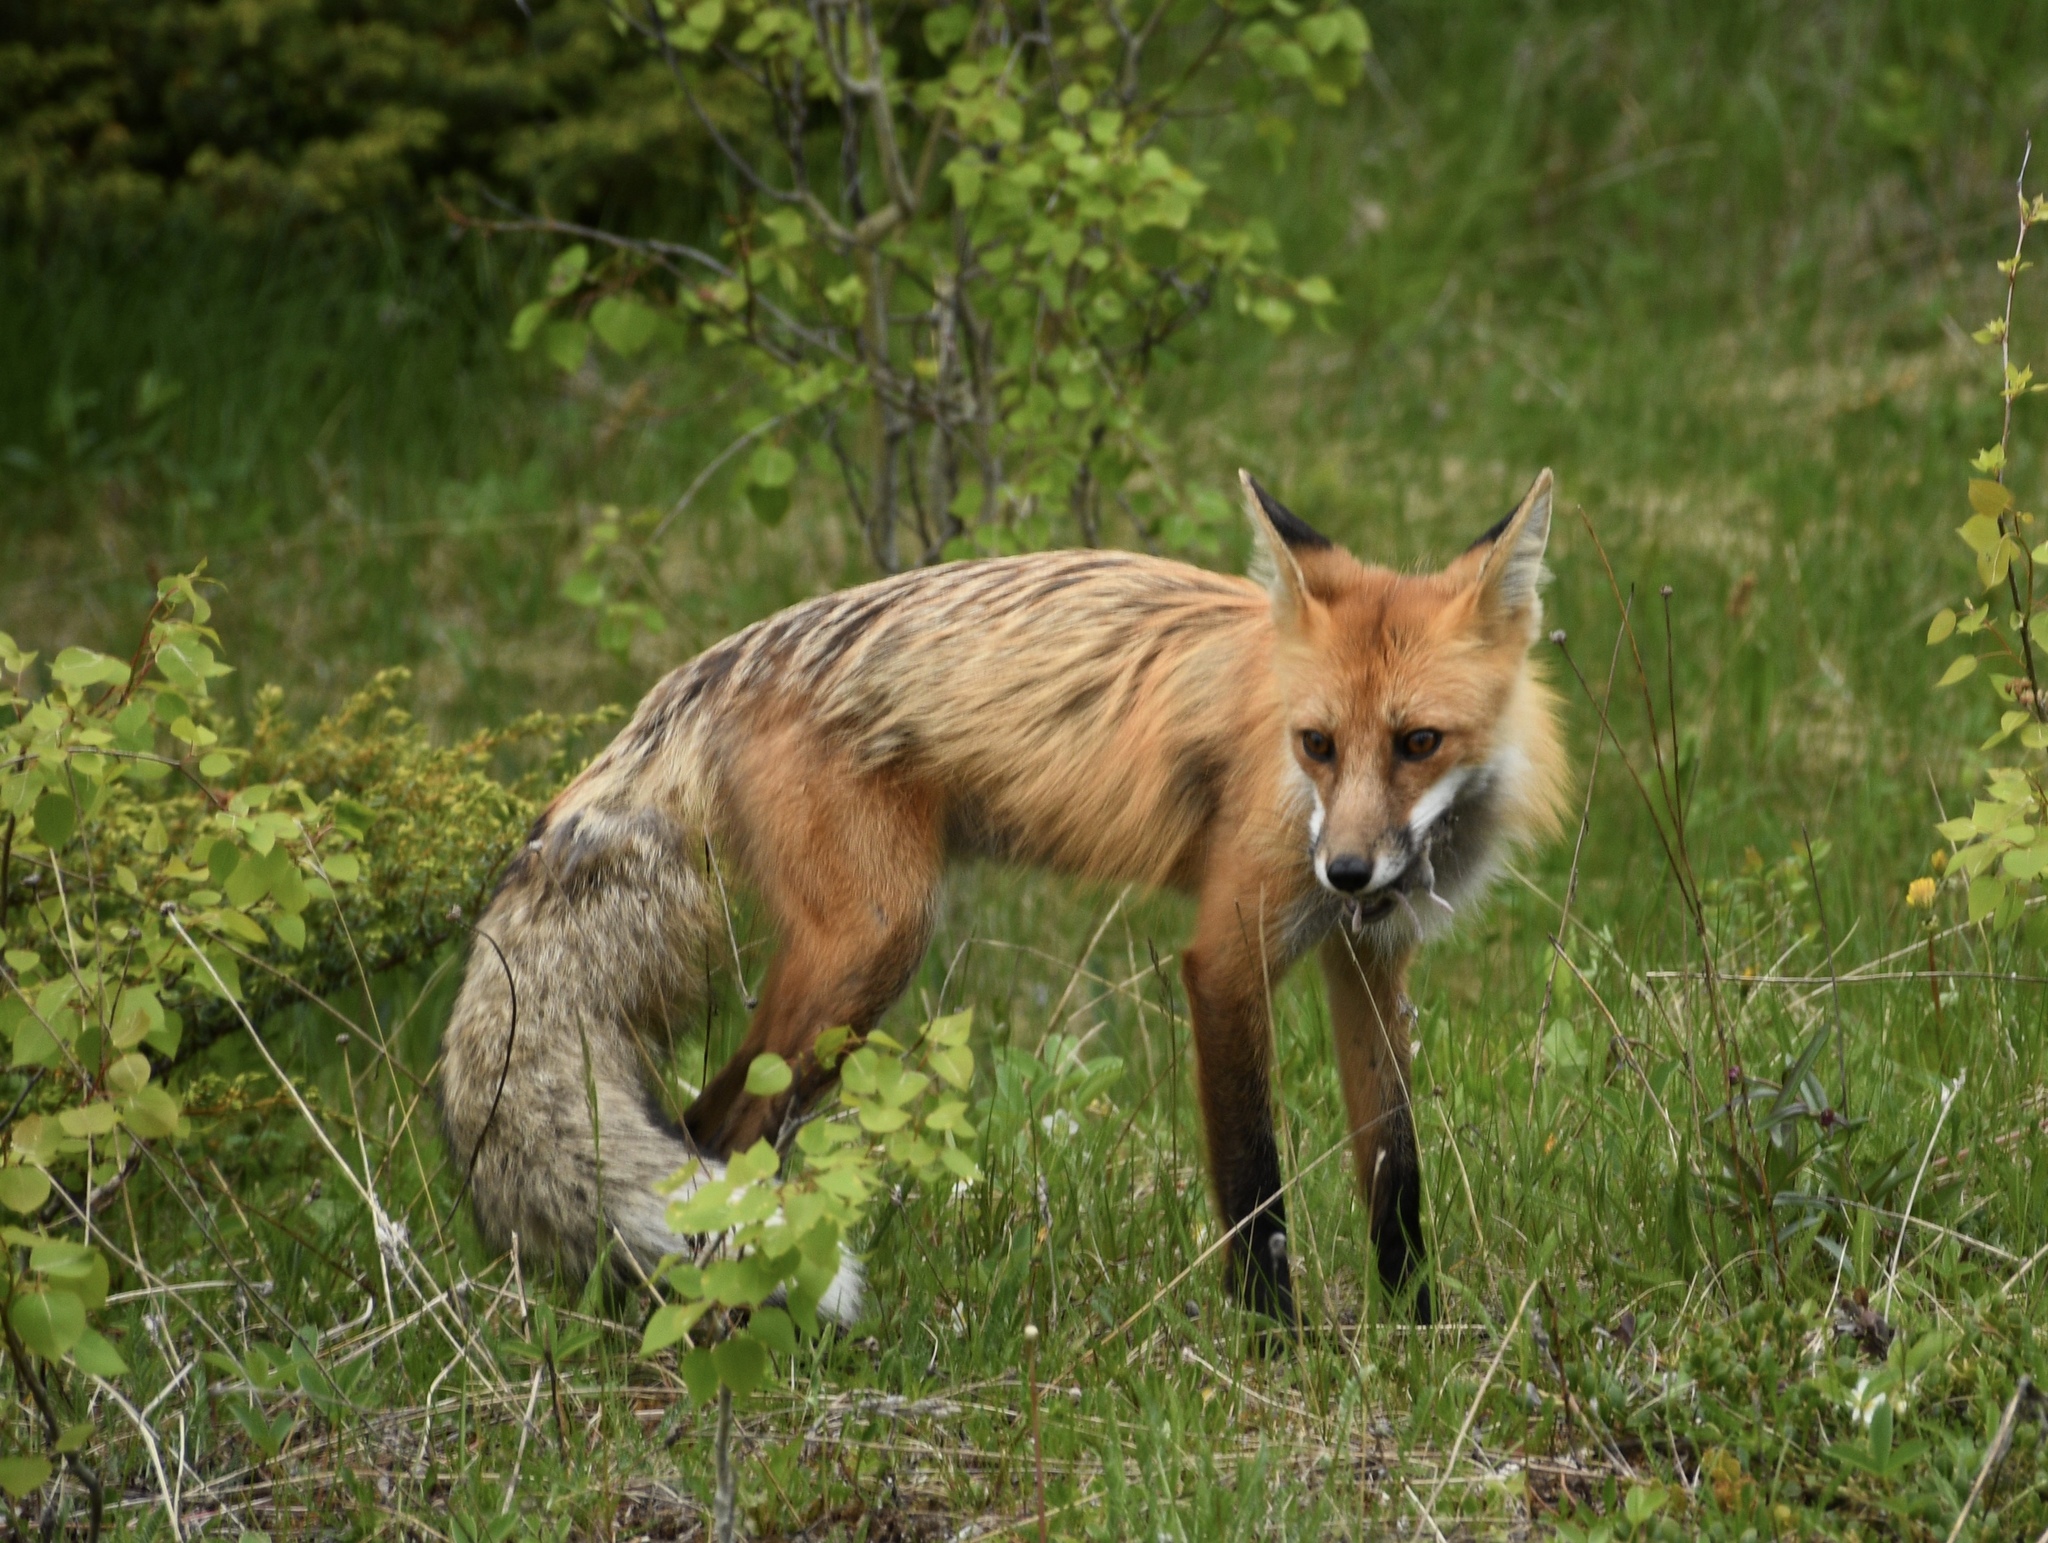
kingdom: Animalia
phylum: Chordata
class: Mammalia
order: Carnivora
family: Canidae
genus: Vulpes
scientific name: Vulpes vulpes
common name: Red fox
